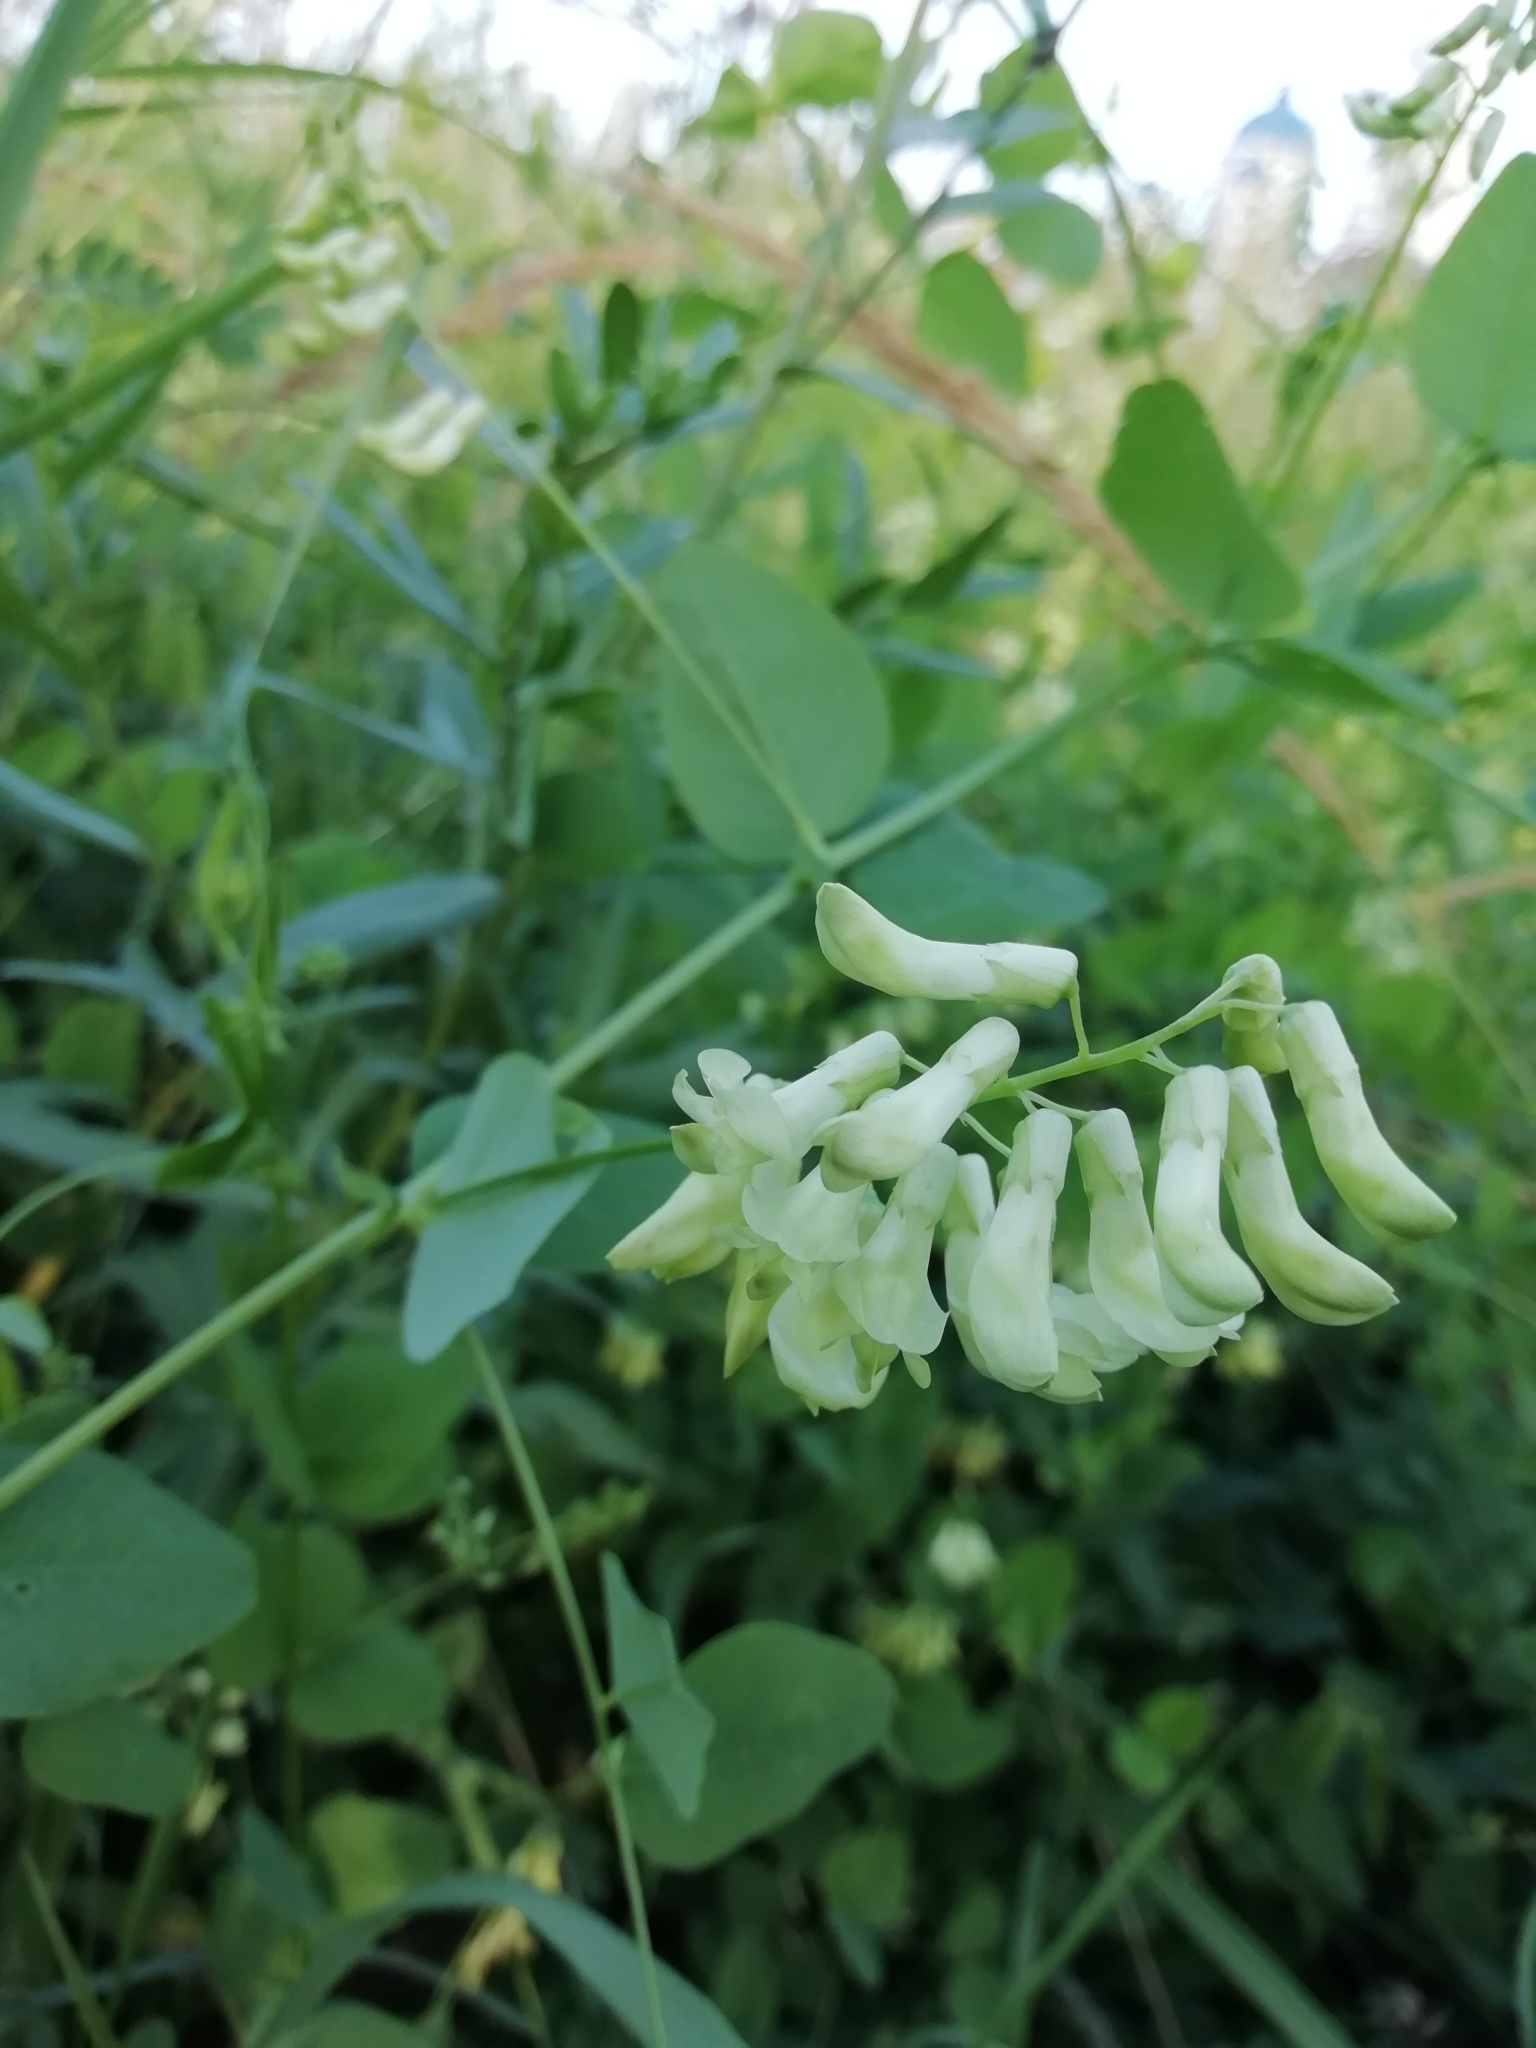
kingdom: Plantae
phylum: Tracheophyta
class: Magnoliopsida
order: Fabales
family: Fabaceae
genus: Vicia
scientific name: Vicia pisiformis
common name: Pale-flower vetch
